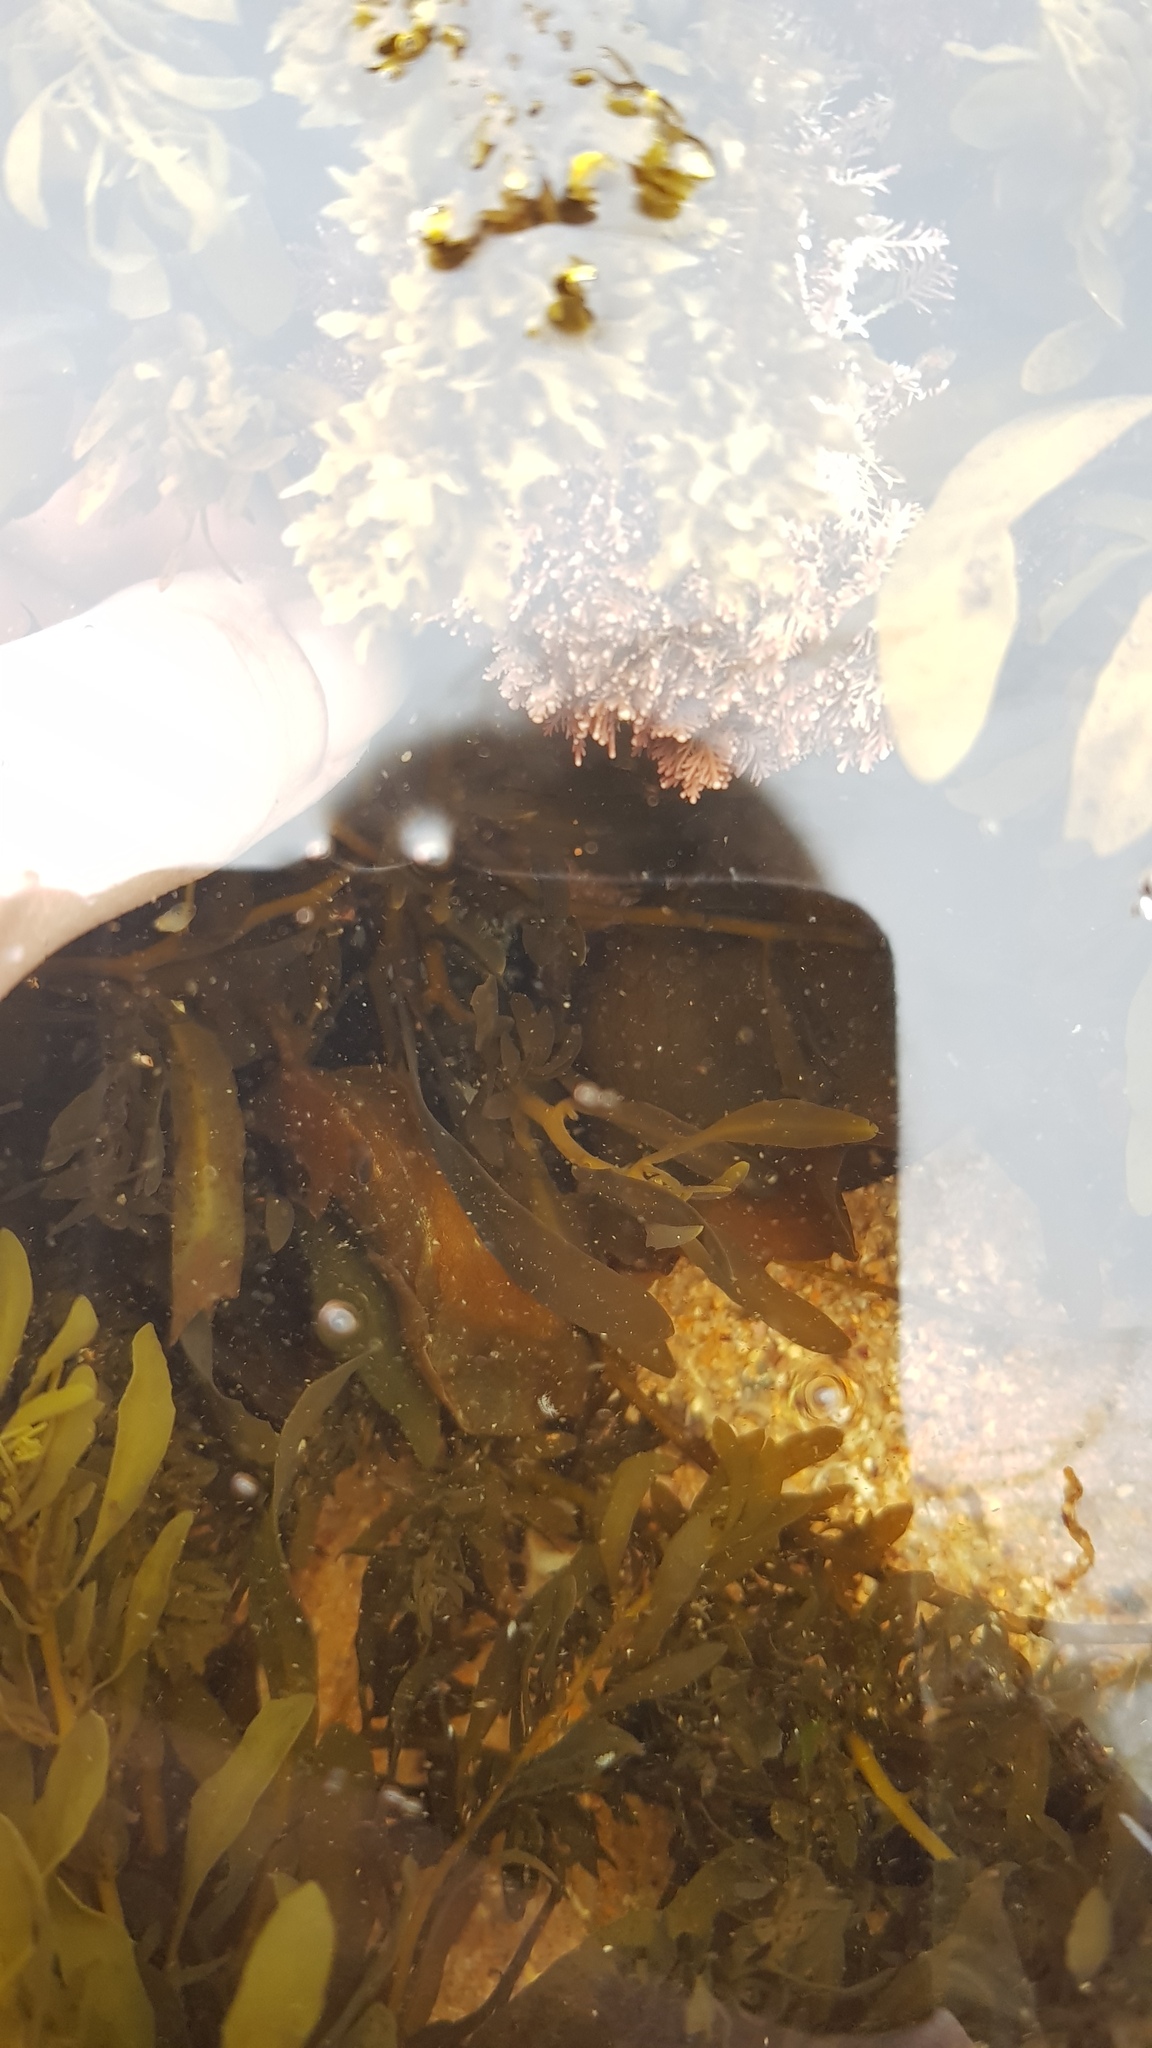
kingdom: Animalia
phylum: Mollusca
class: Gastropoda
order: Aplysiida
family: Aplysiidae
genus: Aplysia
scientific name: Aplysia juliana
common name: Walking sea hare
